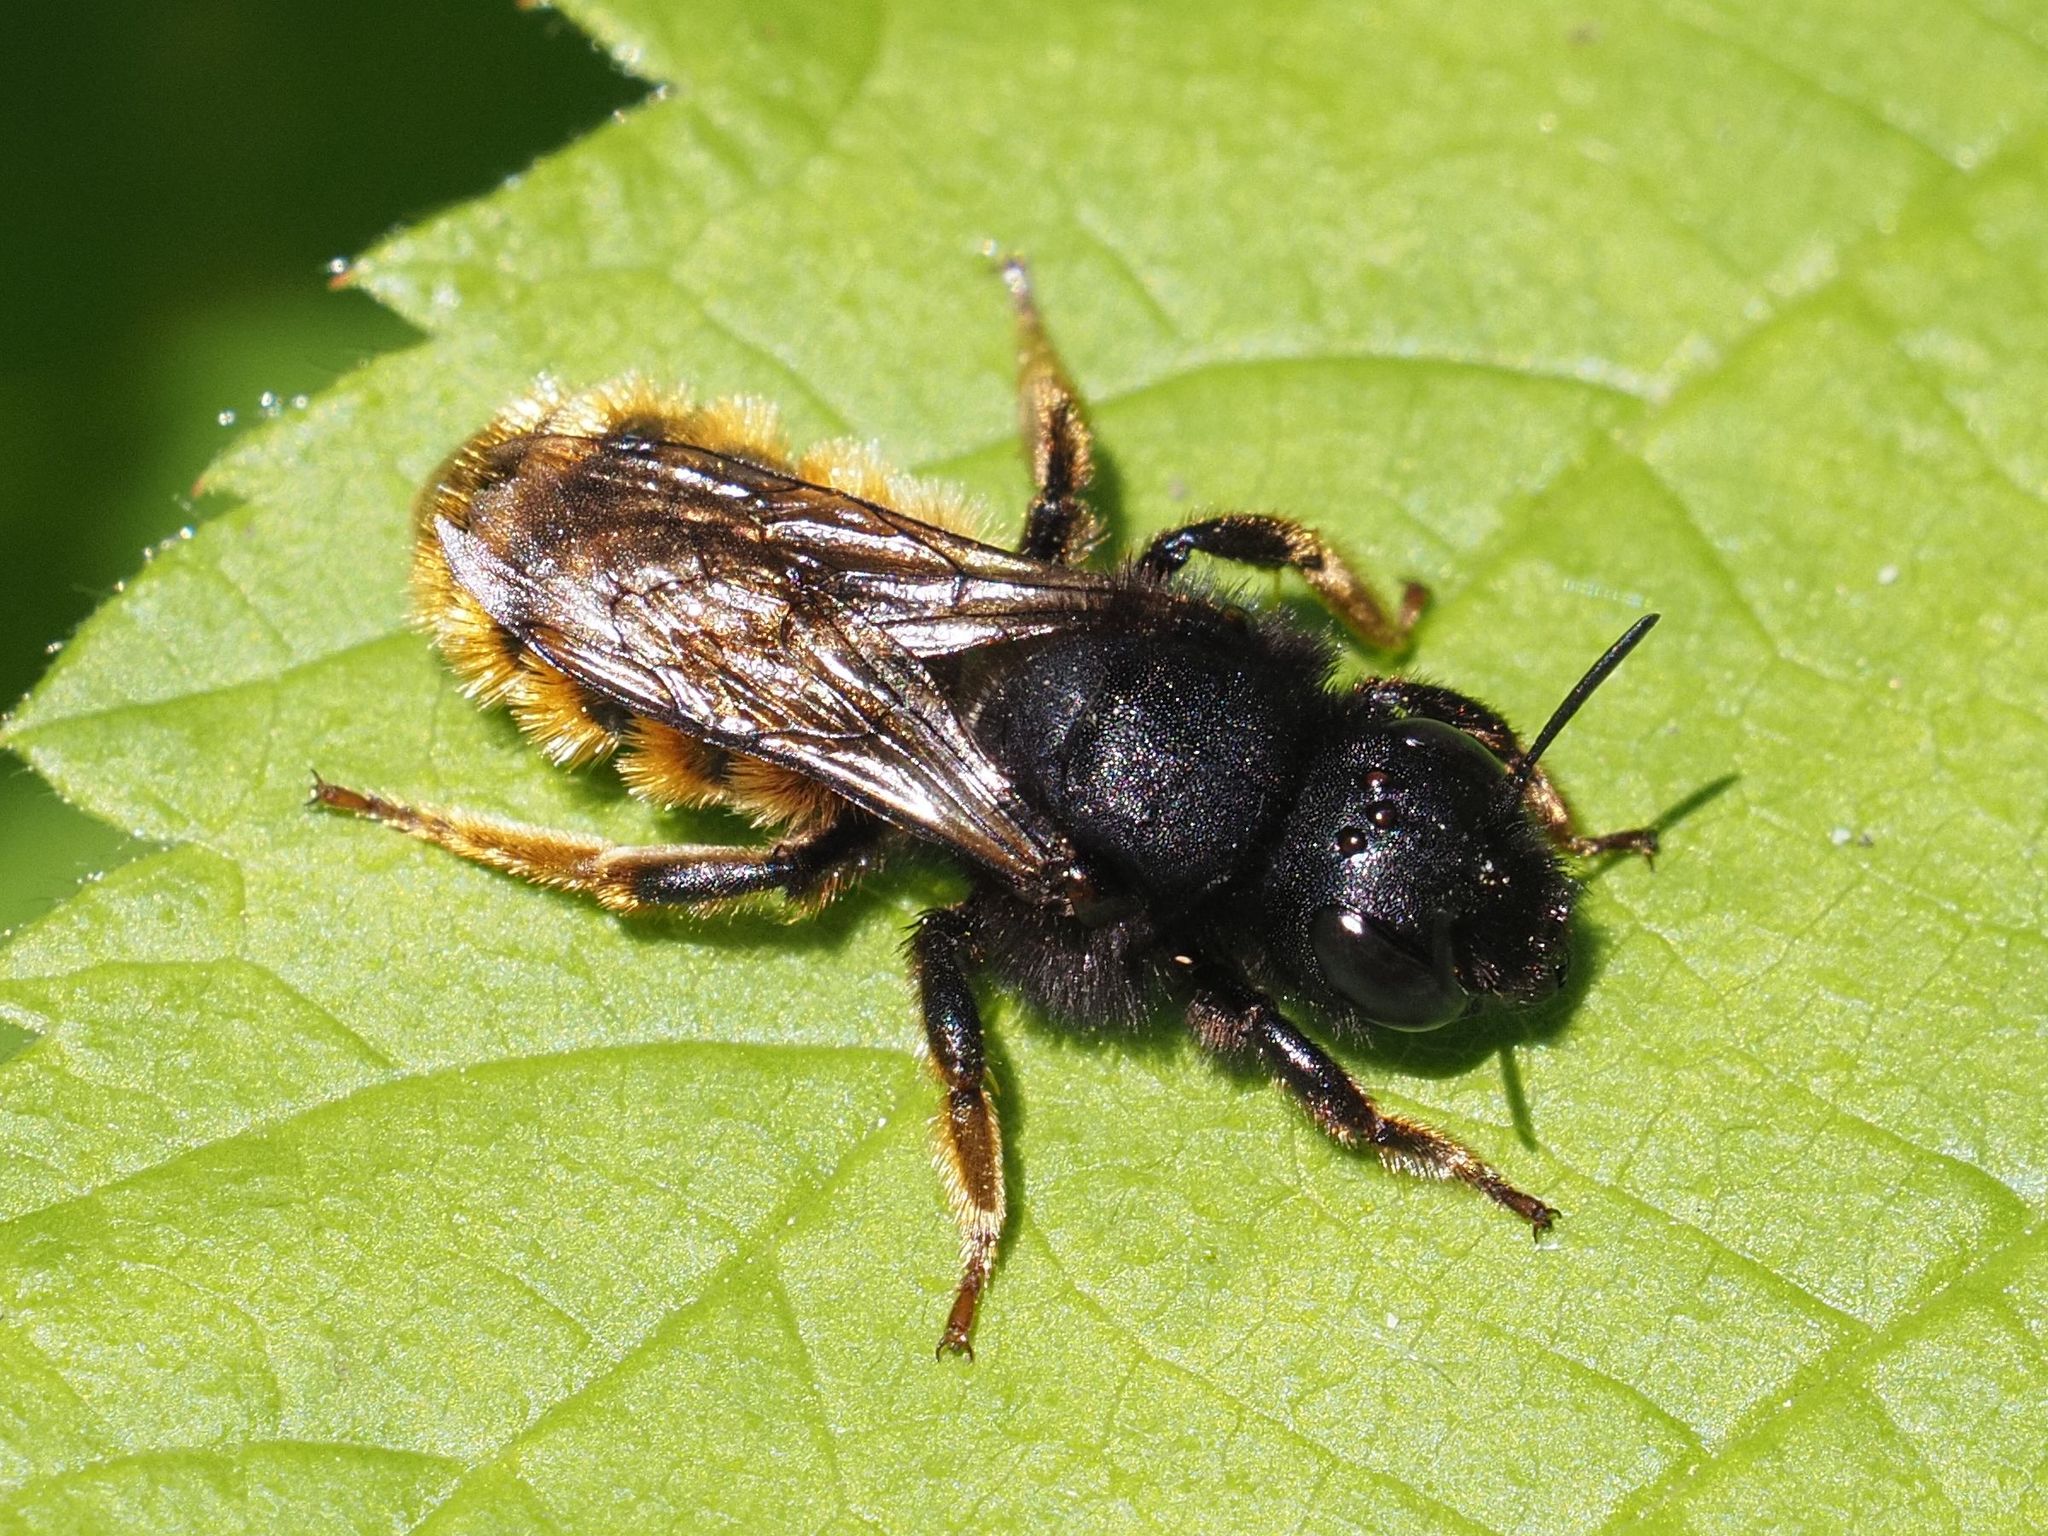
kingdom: Animalia
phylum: Arthropoda
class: Insecta
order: Hymenoptera
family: Megachilidae
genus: Osmia
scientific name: Osmia bicolor
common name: Red-tailed mason bee
